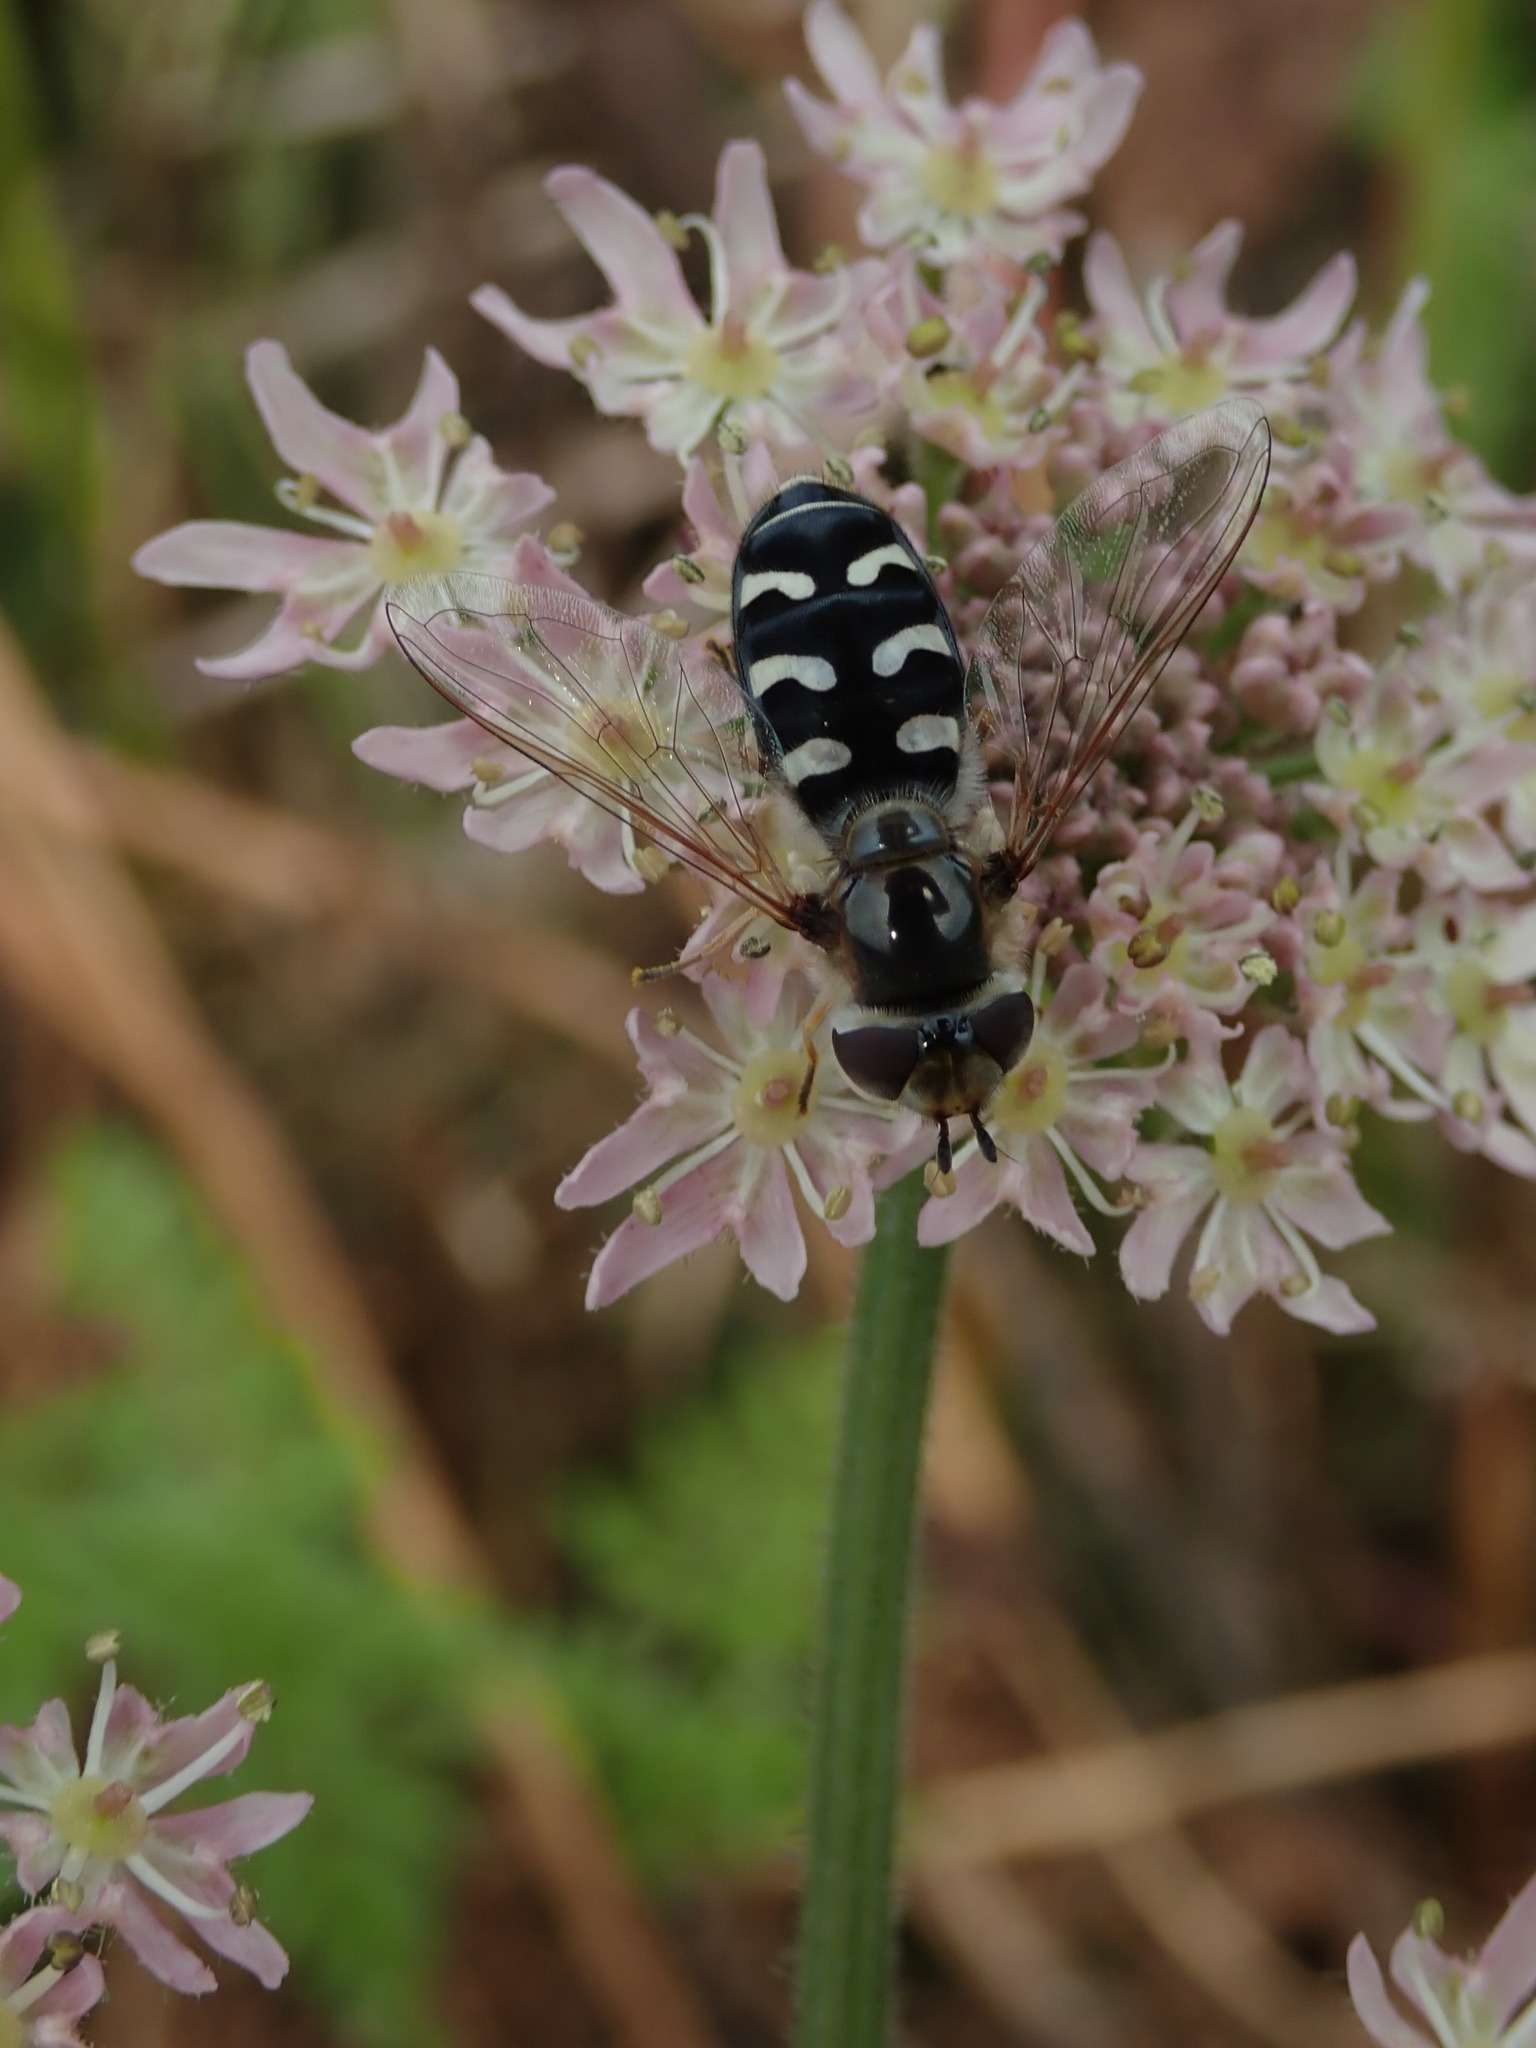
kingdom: Animalia
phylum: Arthropoda
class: Insecta
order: Diptera
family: Syrphidae
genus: Scaeva
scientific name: Scaeva pyrastri
